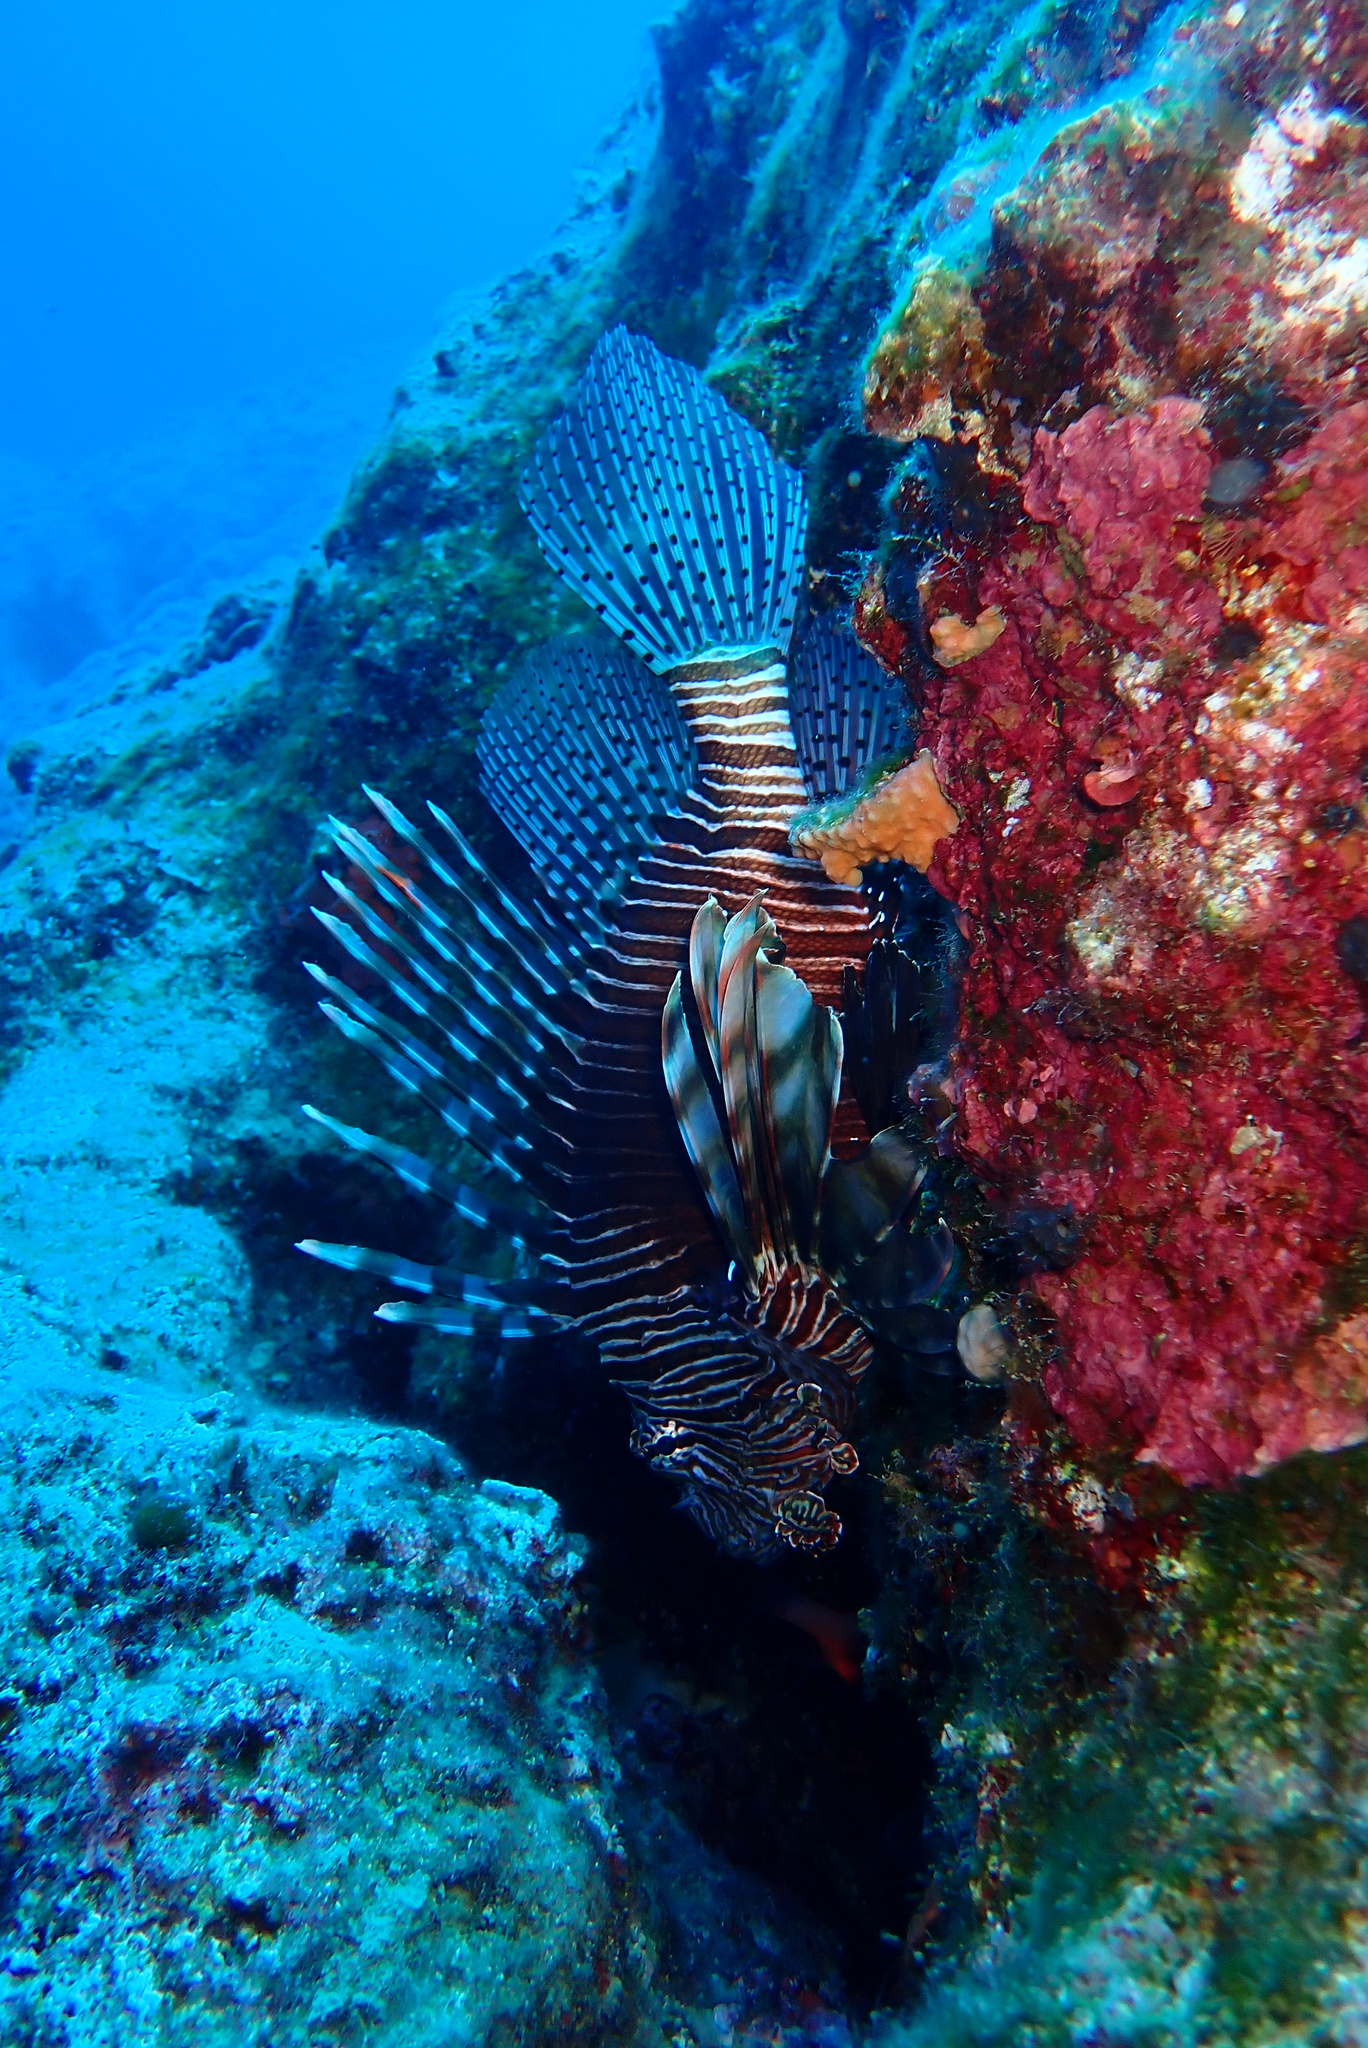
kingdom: Animalia
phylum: Chordata
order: Scorpaeniformes
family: Scorpaenidae
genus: Pterois
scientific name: Pterois miles
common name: Devil firefish
